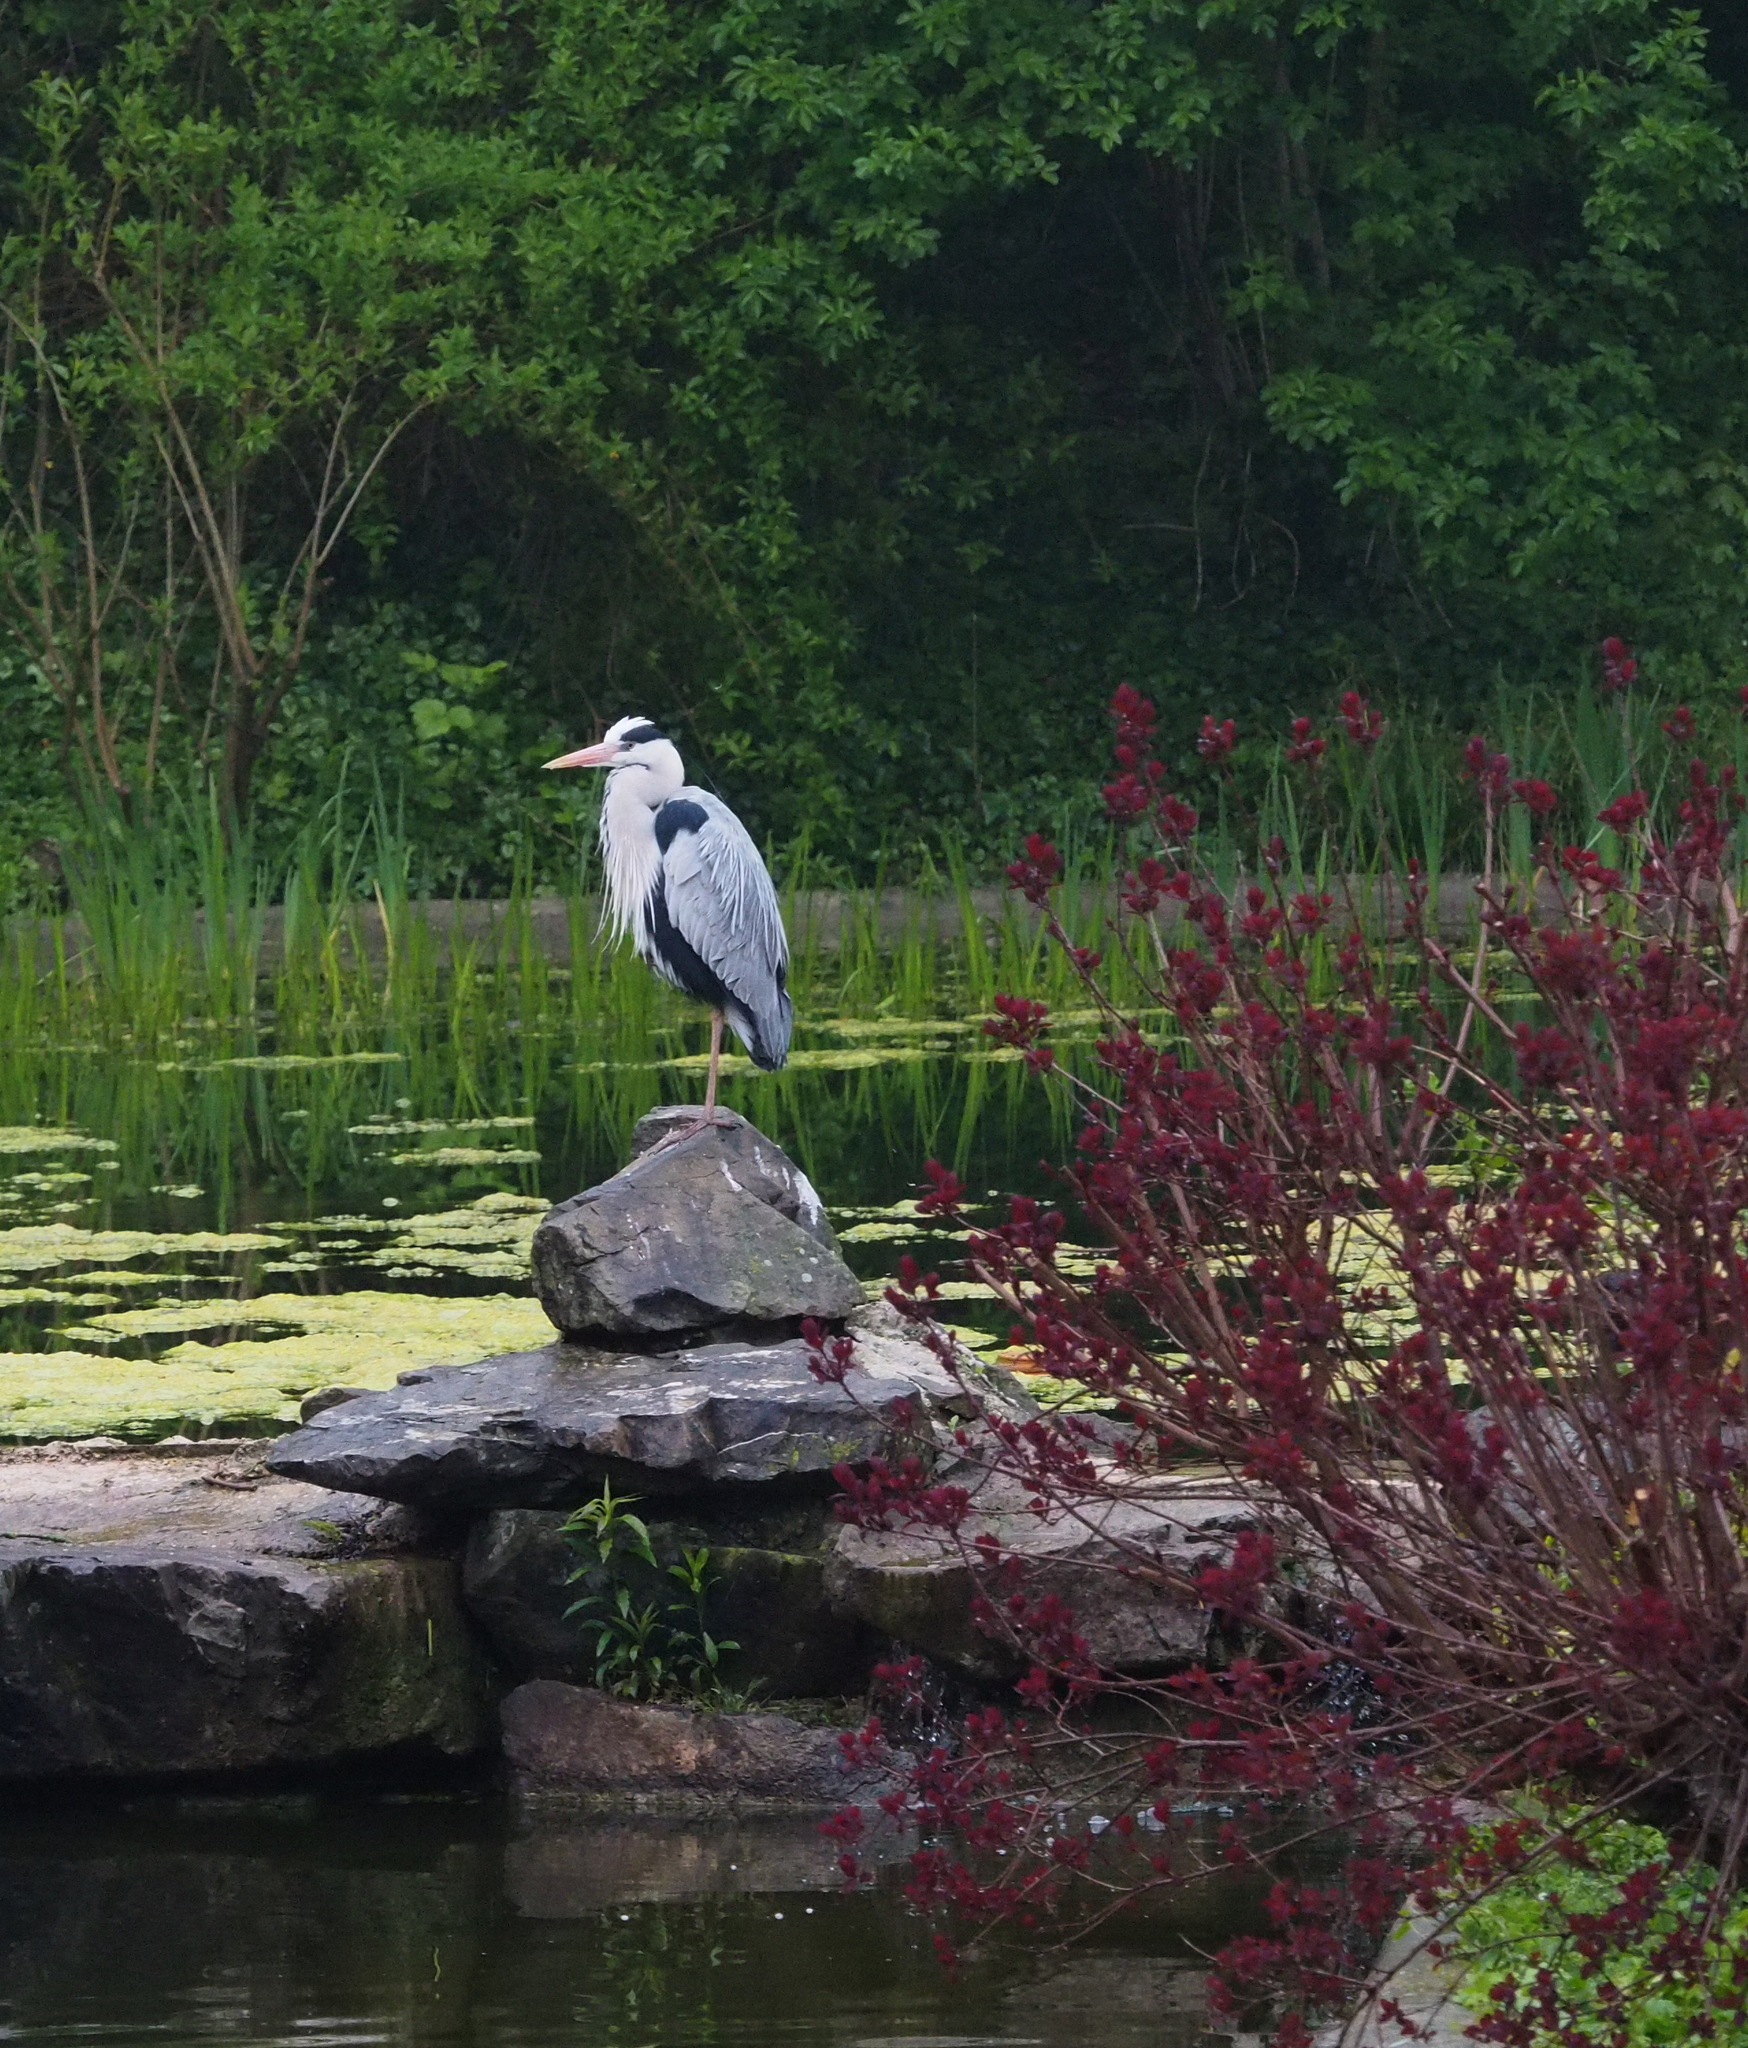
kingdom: Animalia
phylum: Chordata
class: Aves
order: Pelecaniformes
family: Ardeidae
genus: Ardea
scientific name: Ardea cinerea
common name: Grey heron
